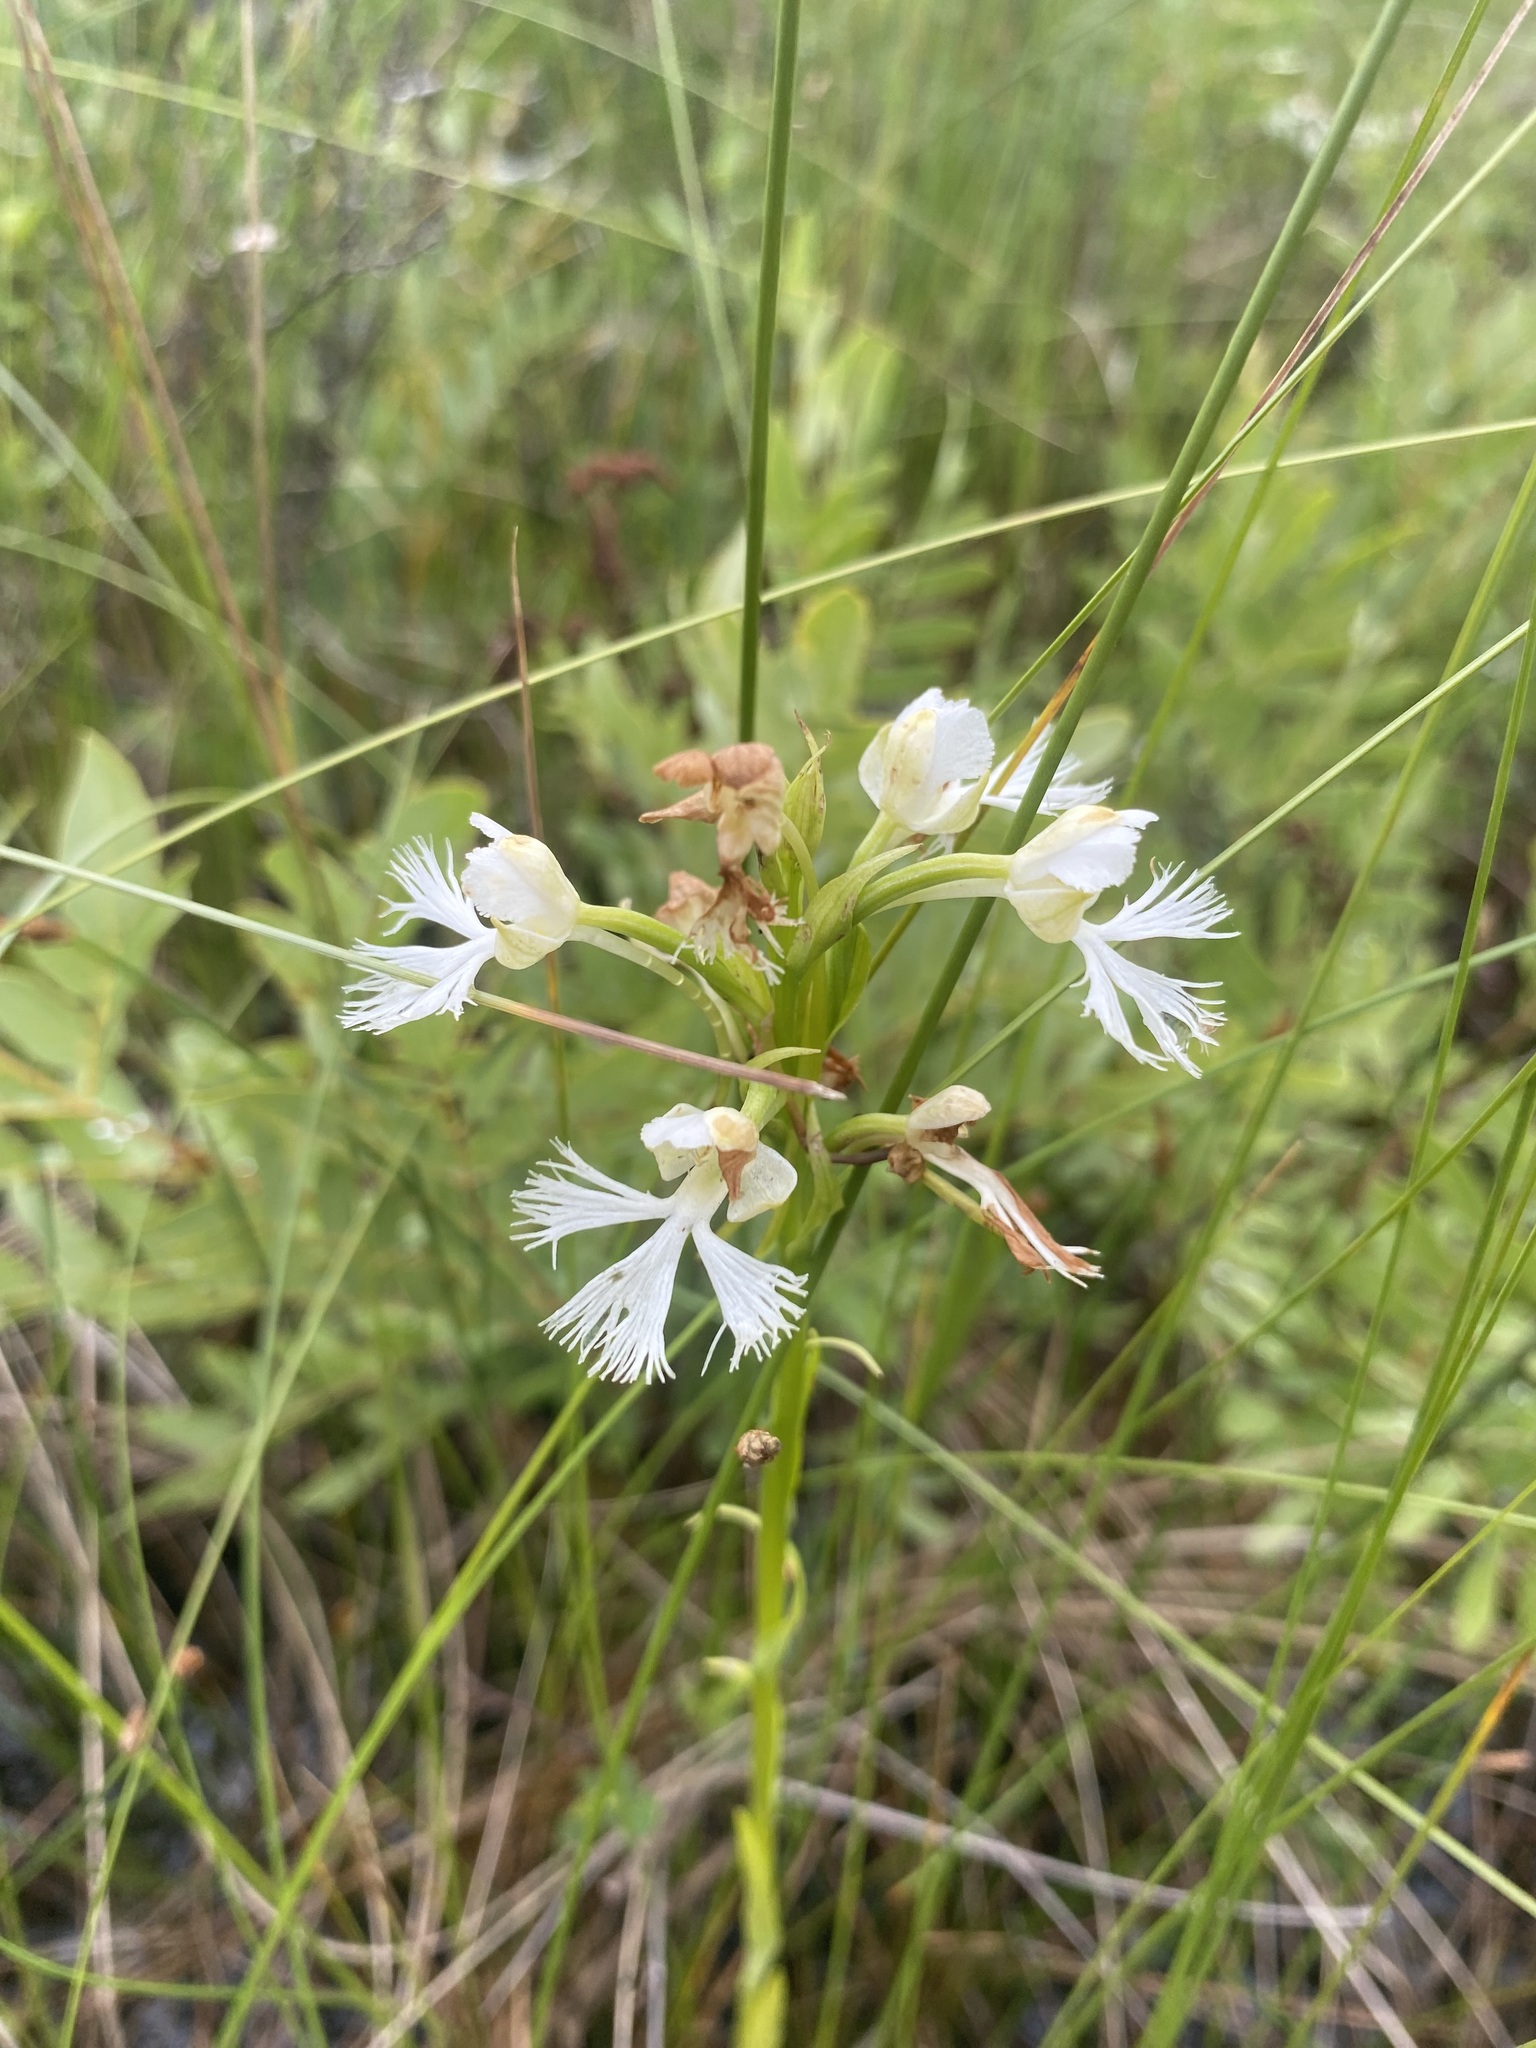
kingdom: Plantae
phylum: Tracheophyta
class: Liliopsida
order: Asparagales
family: Orchidaceae
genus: Platanthera
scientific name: Platanthera leucophaea
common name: Eastern prairie white-fringed orchid
